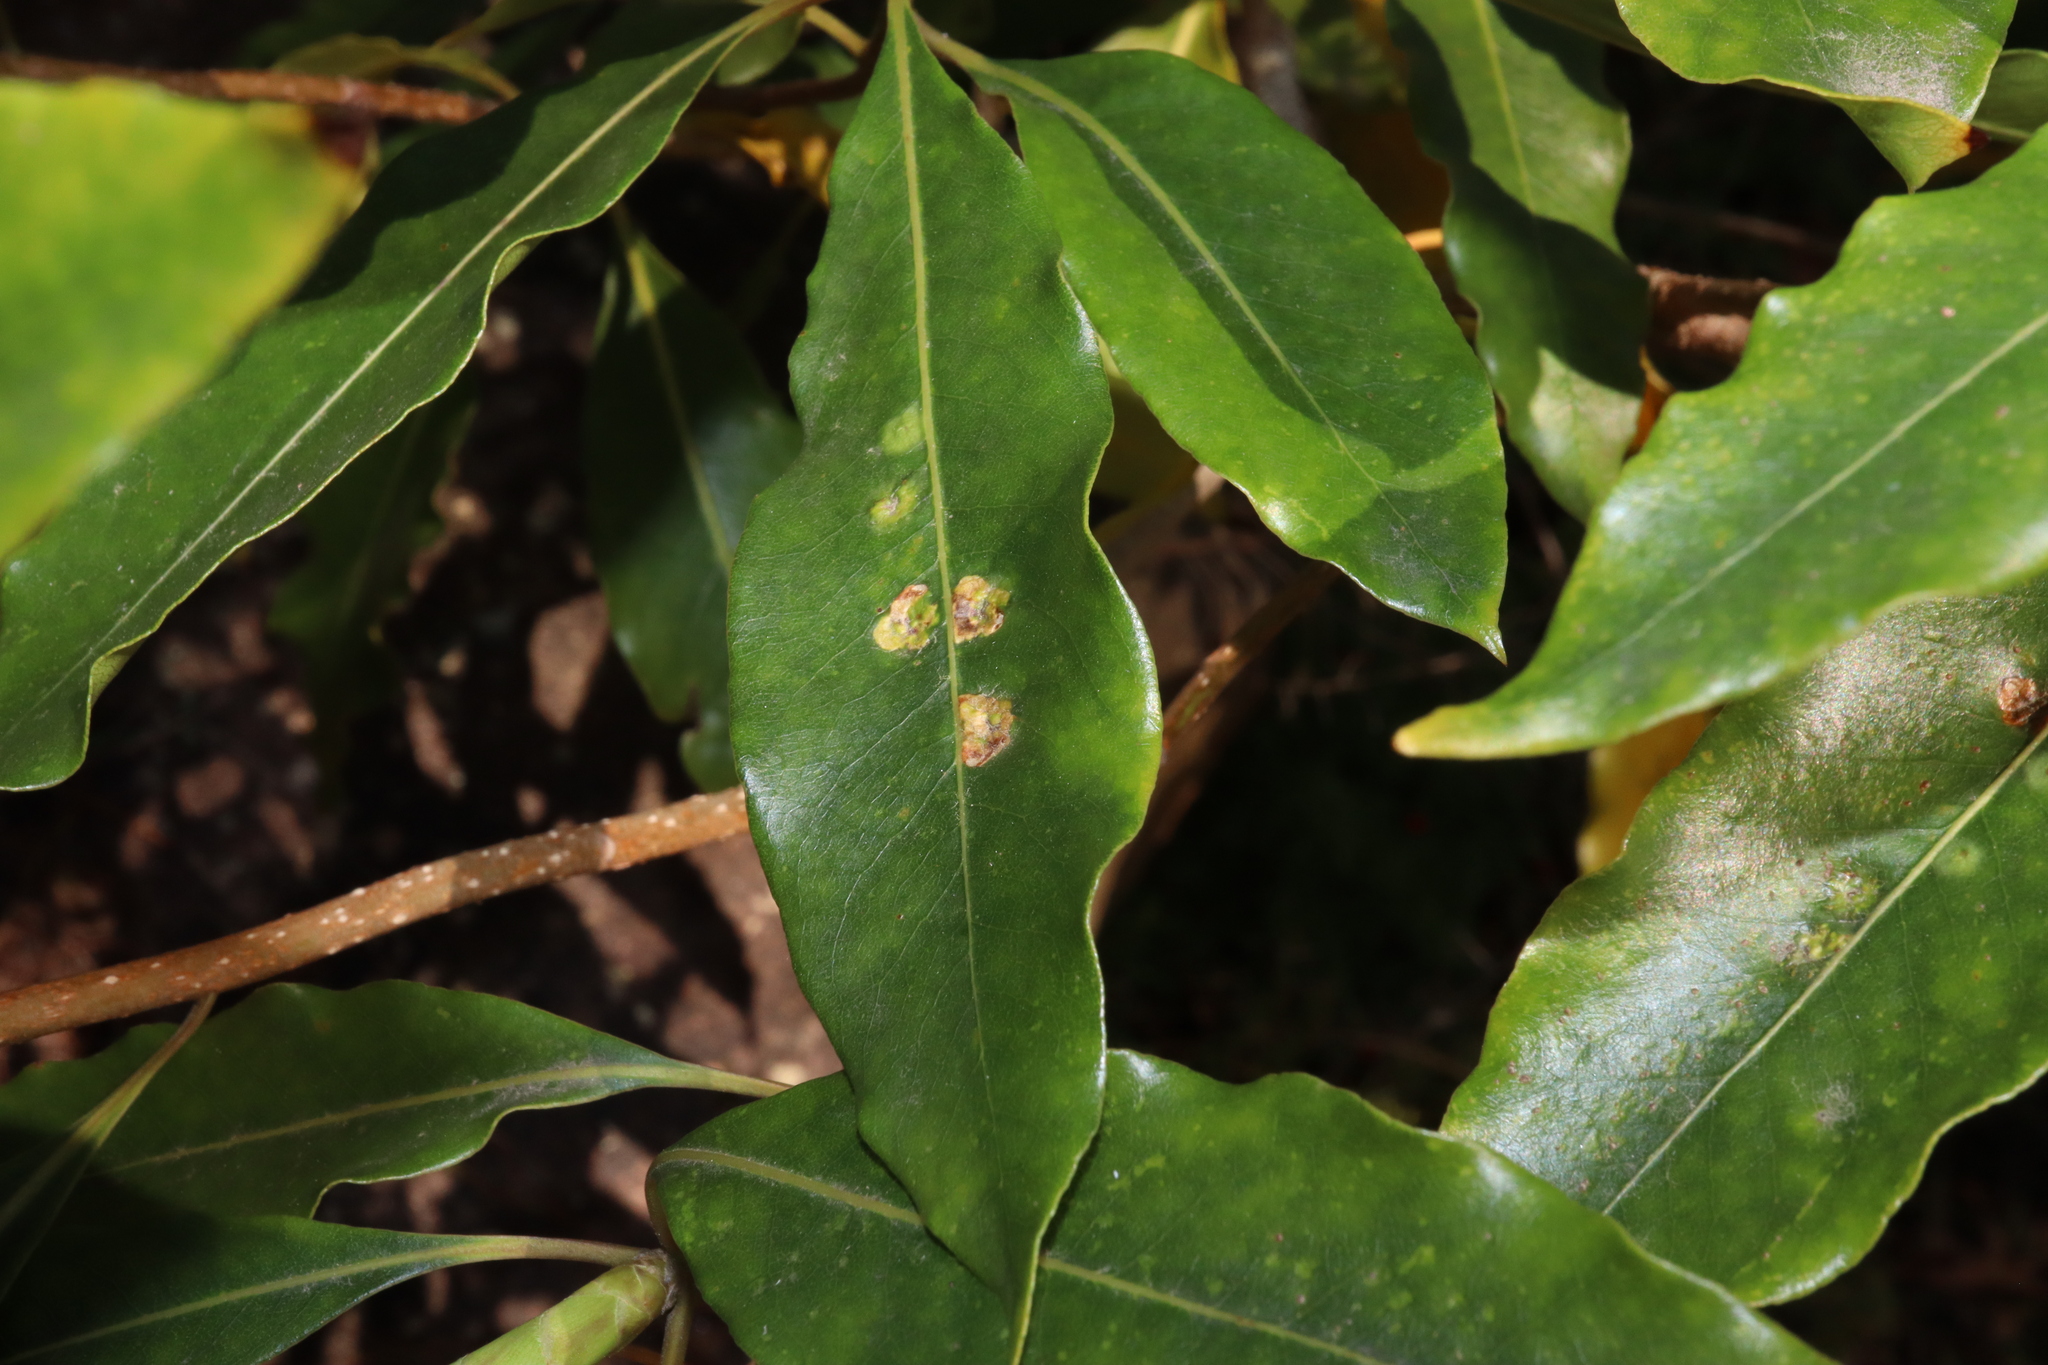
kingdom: Animalia
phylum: Arthropoda
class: Insecta
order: Diptera
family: Agromyzidae
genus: Phytoliriomyza
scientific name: Phytoliriomyza pittosporophylli
